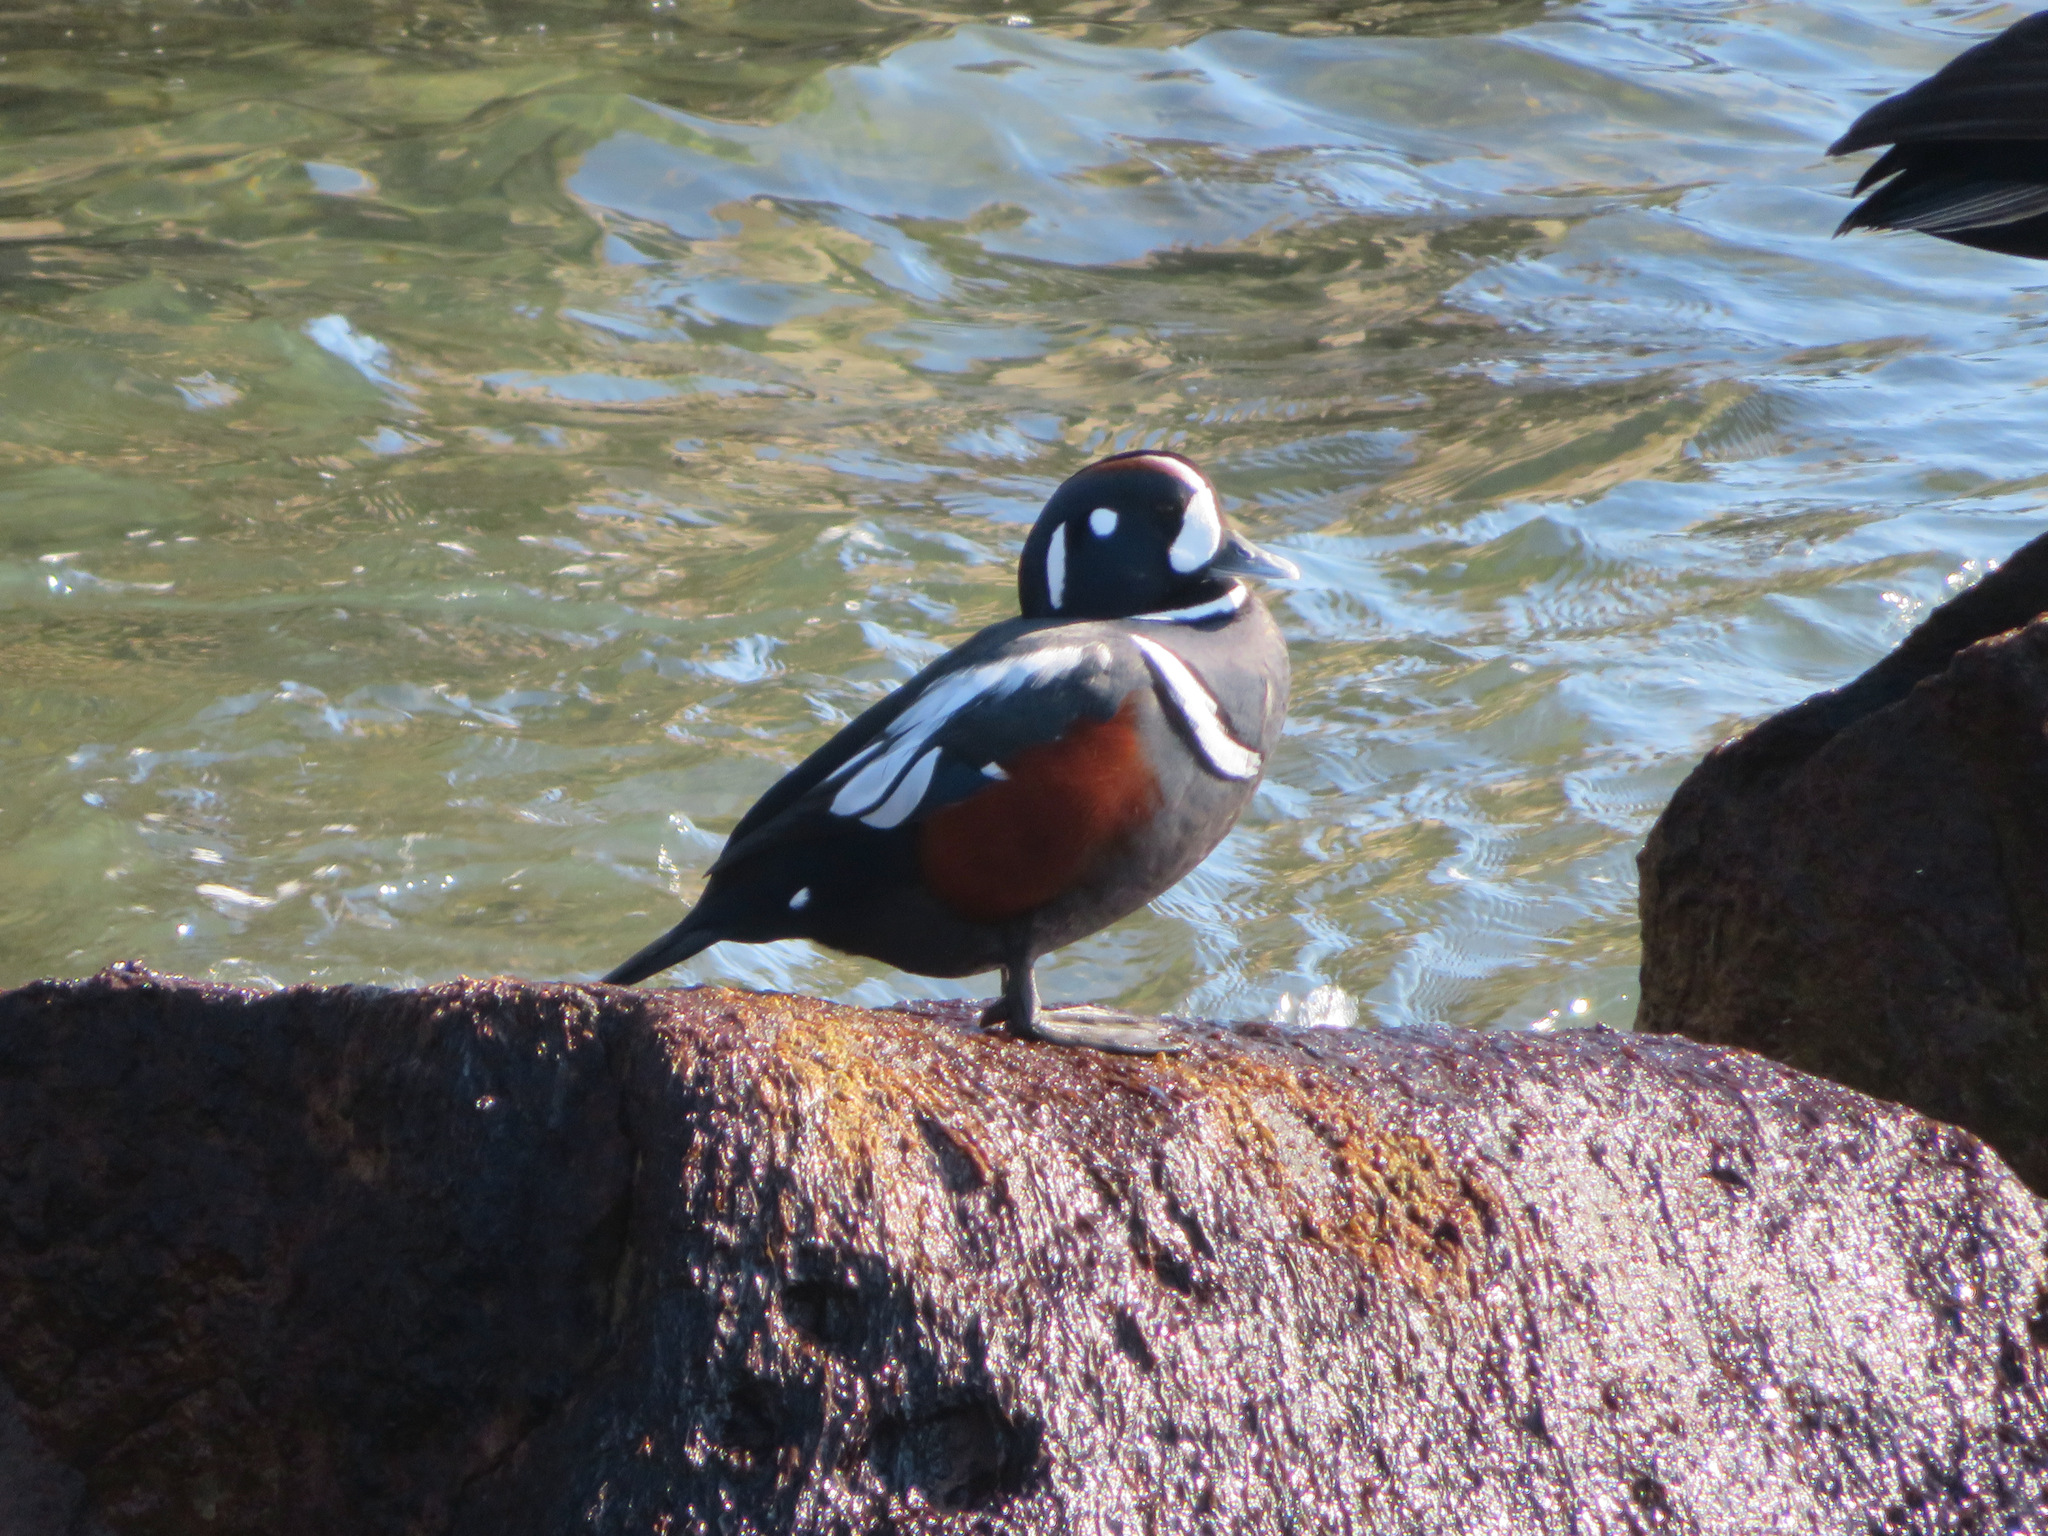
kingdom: Animalia
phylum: Chordata
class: Aves
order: Anseriformes
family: Anatidae
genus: Histrionicus
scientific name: Histrionicus histrionicus
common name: Harlequin duck
